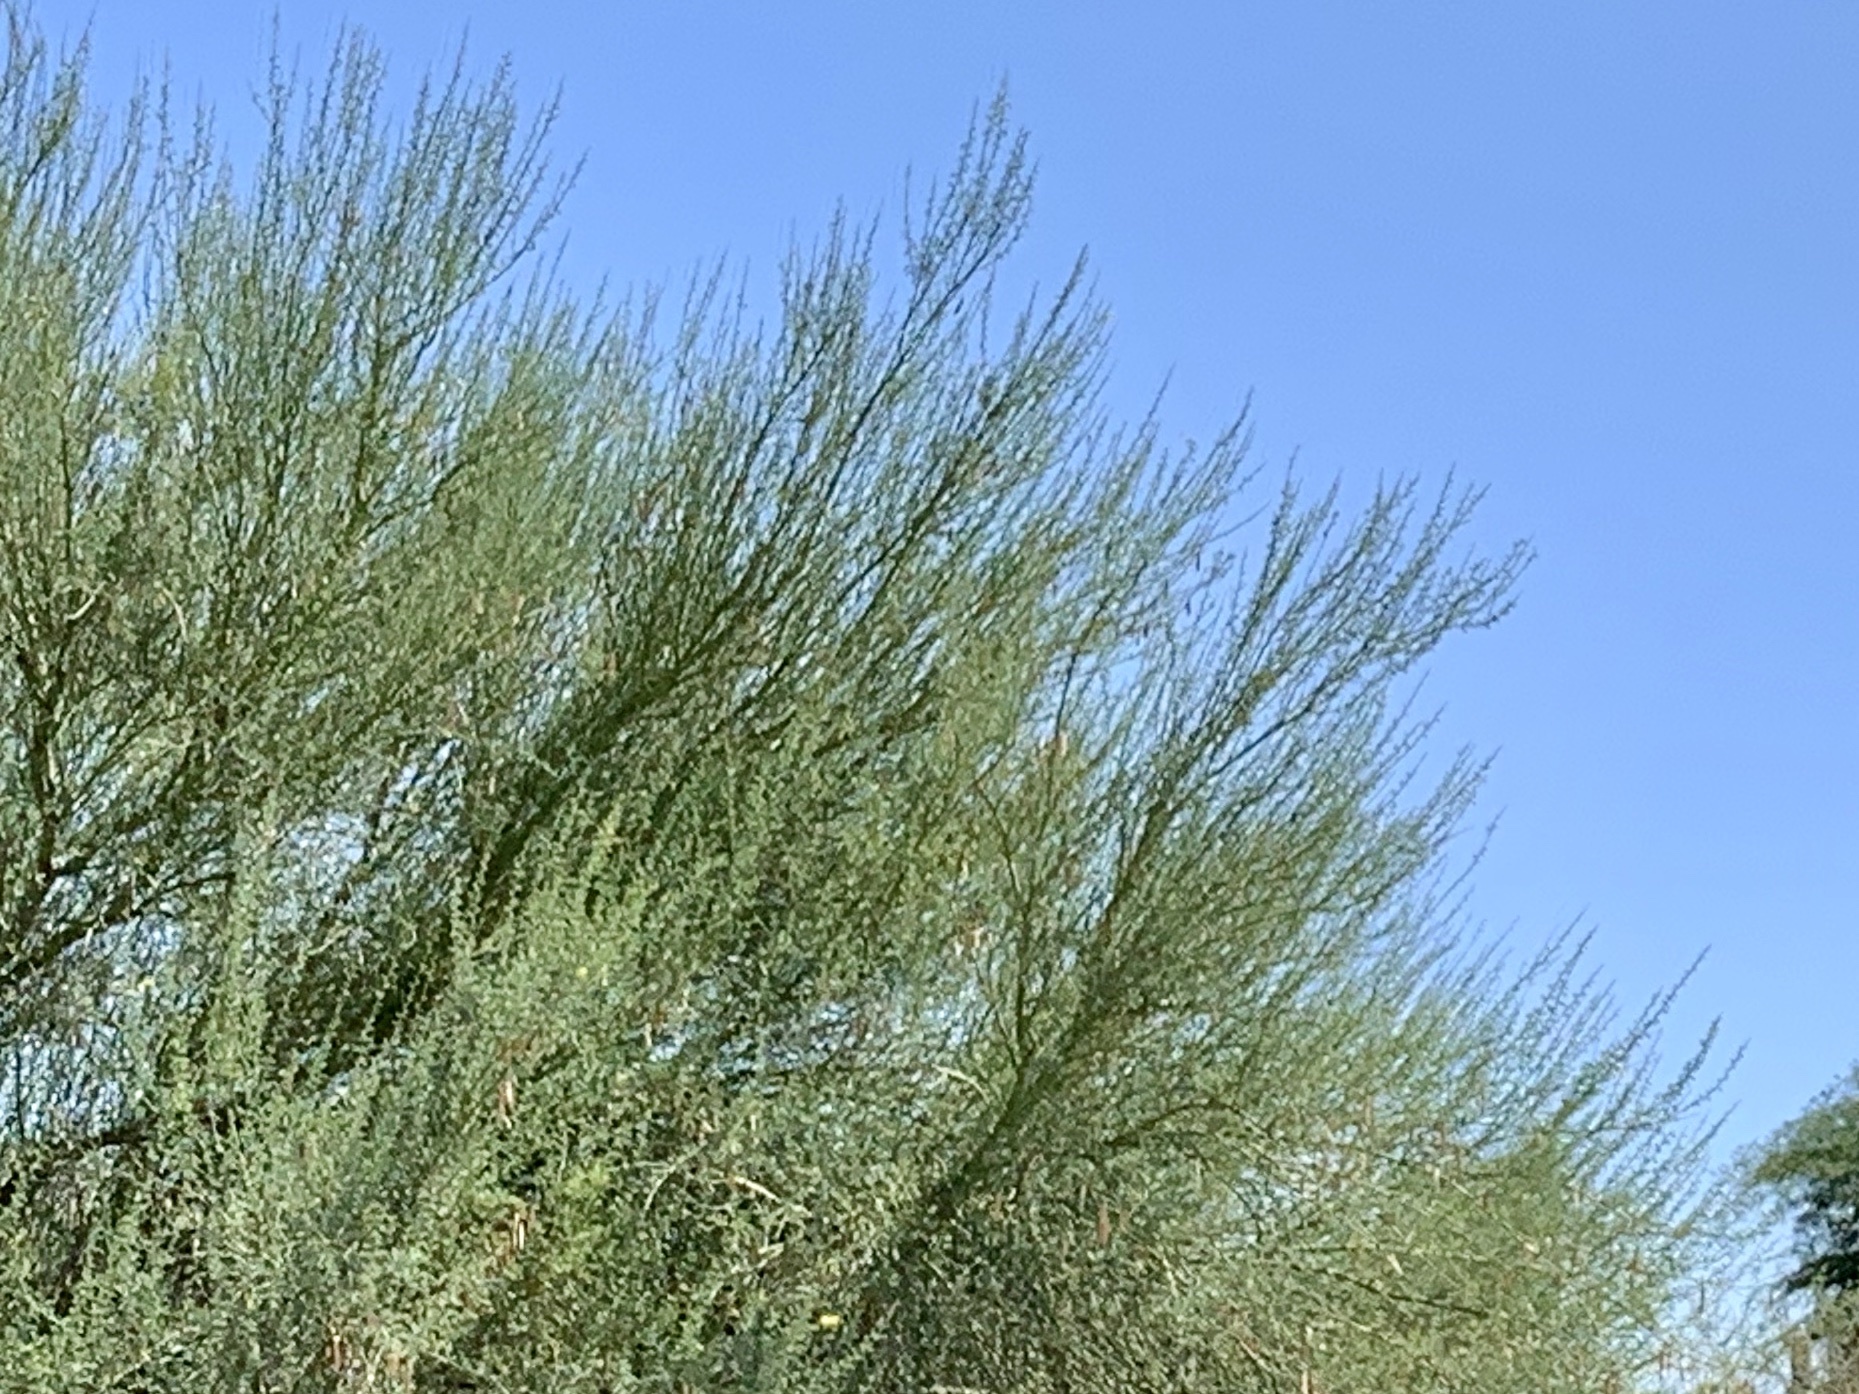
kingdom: Plantae
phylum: Tracheophyta
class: Magnoliopsida
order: Fabales
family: Fabaceae
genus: Parkinsonia
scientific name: Parkinsonia florida
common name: Blue paloverde
